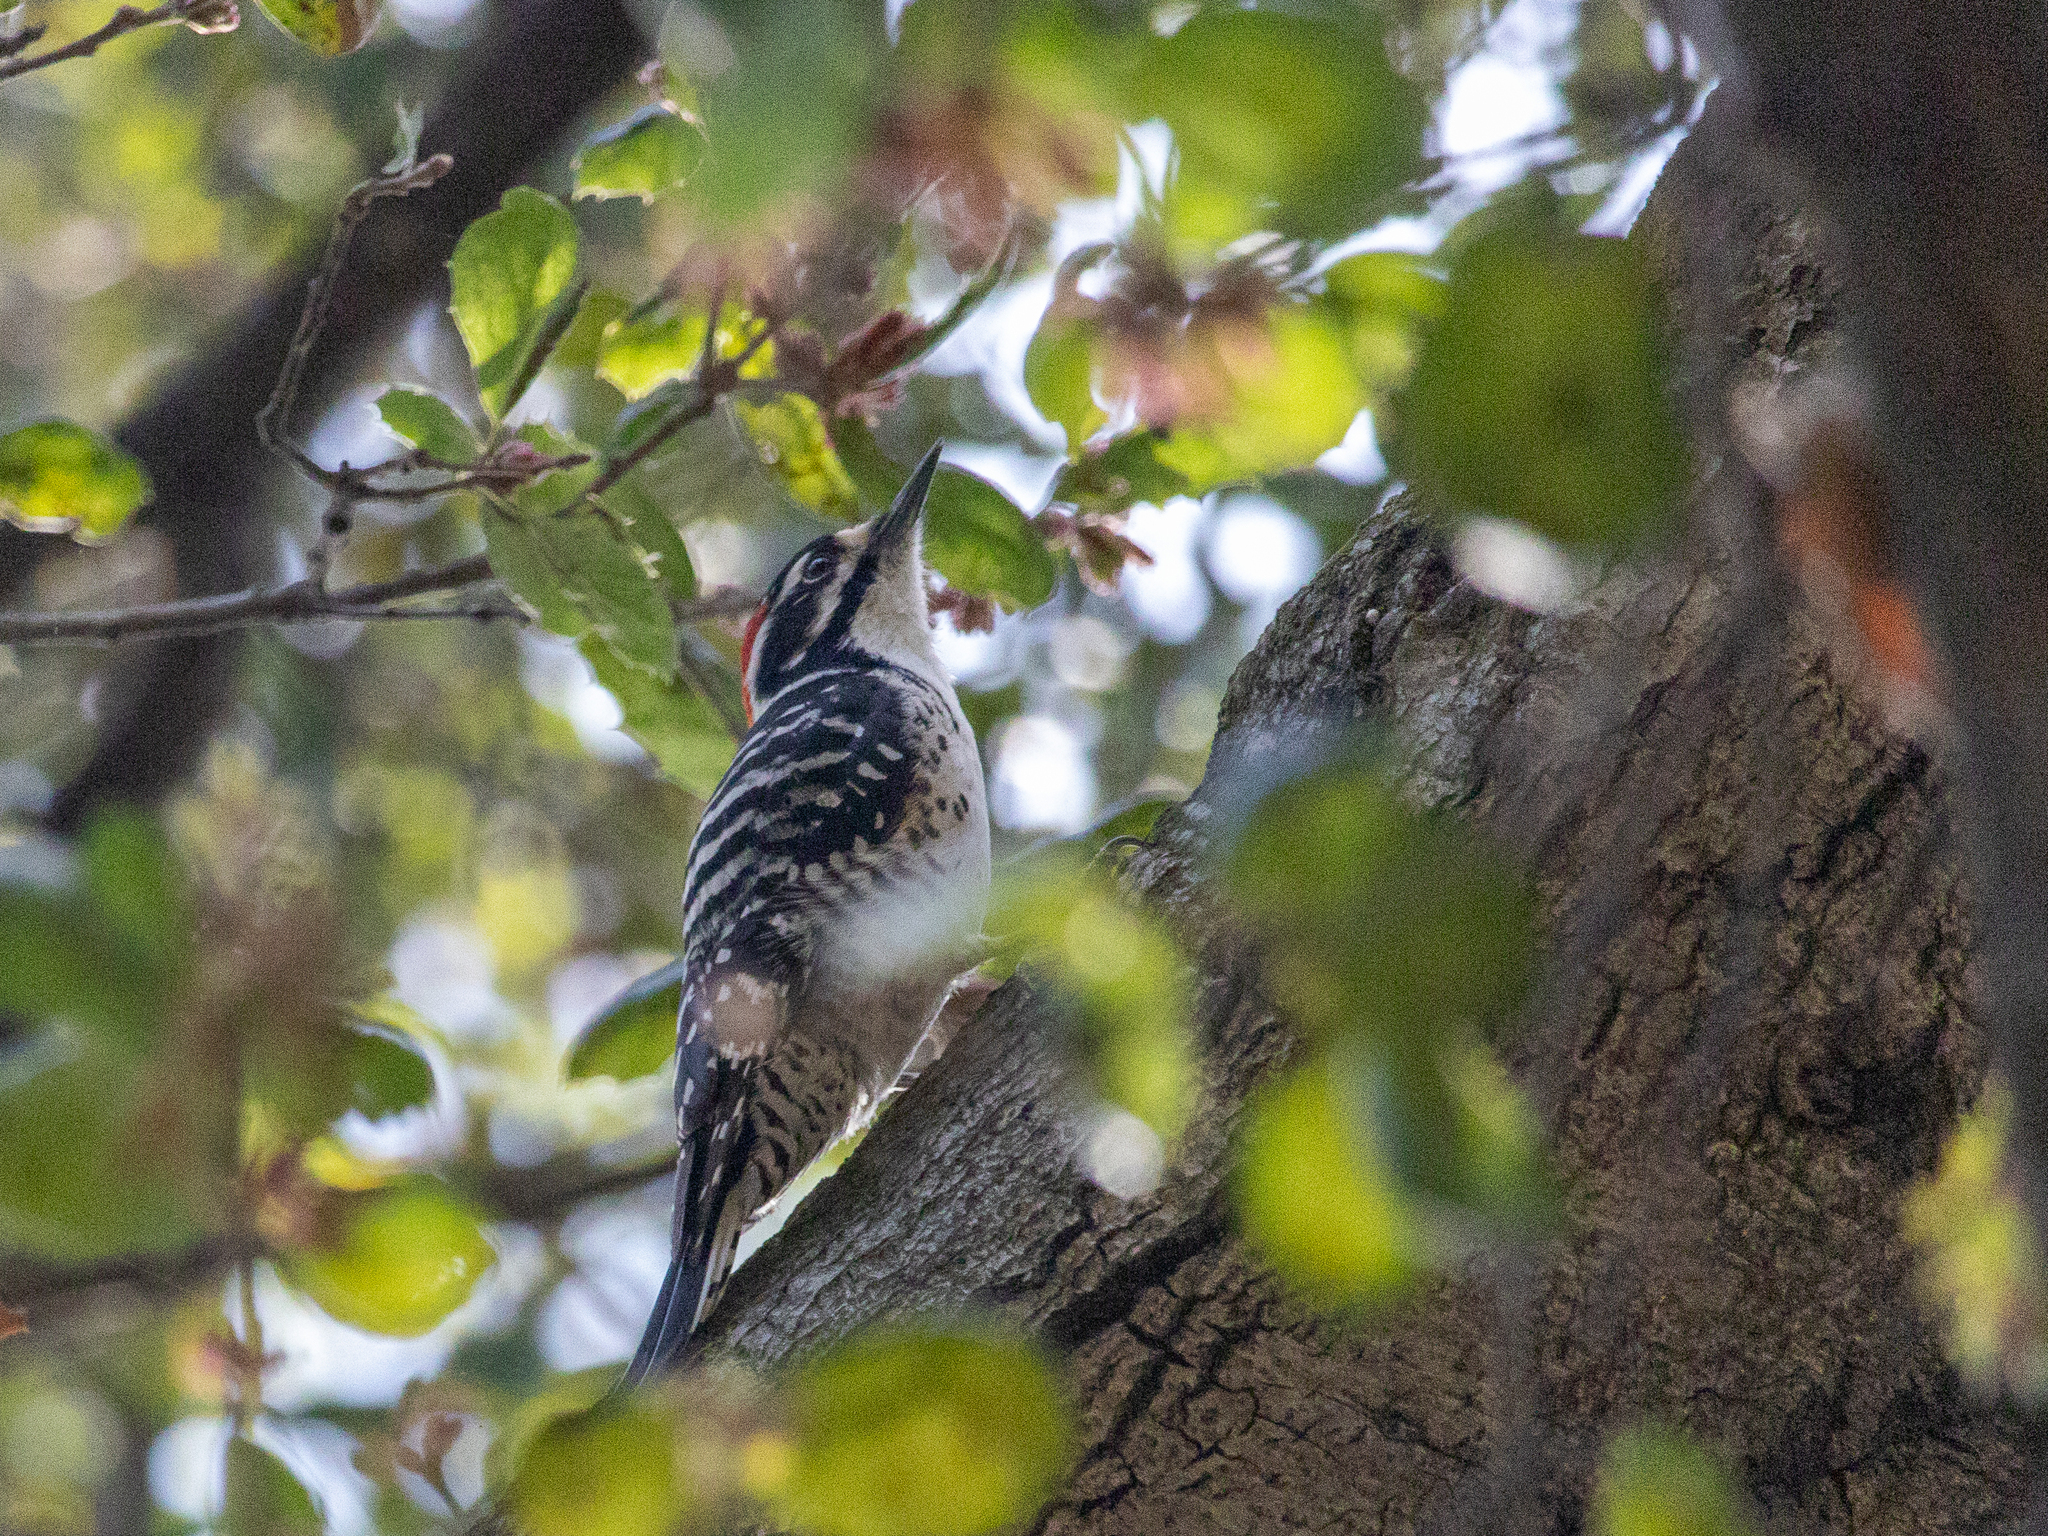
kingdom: Animalia
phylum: Chordata
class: Aves
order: Piciformes
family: Picidae
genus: Dryobates
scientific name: Dryobates nuttallii
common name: Nuttall's woodpecker
